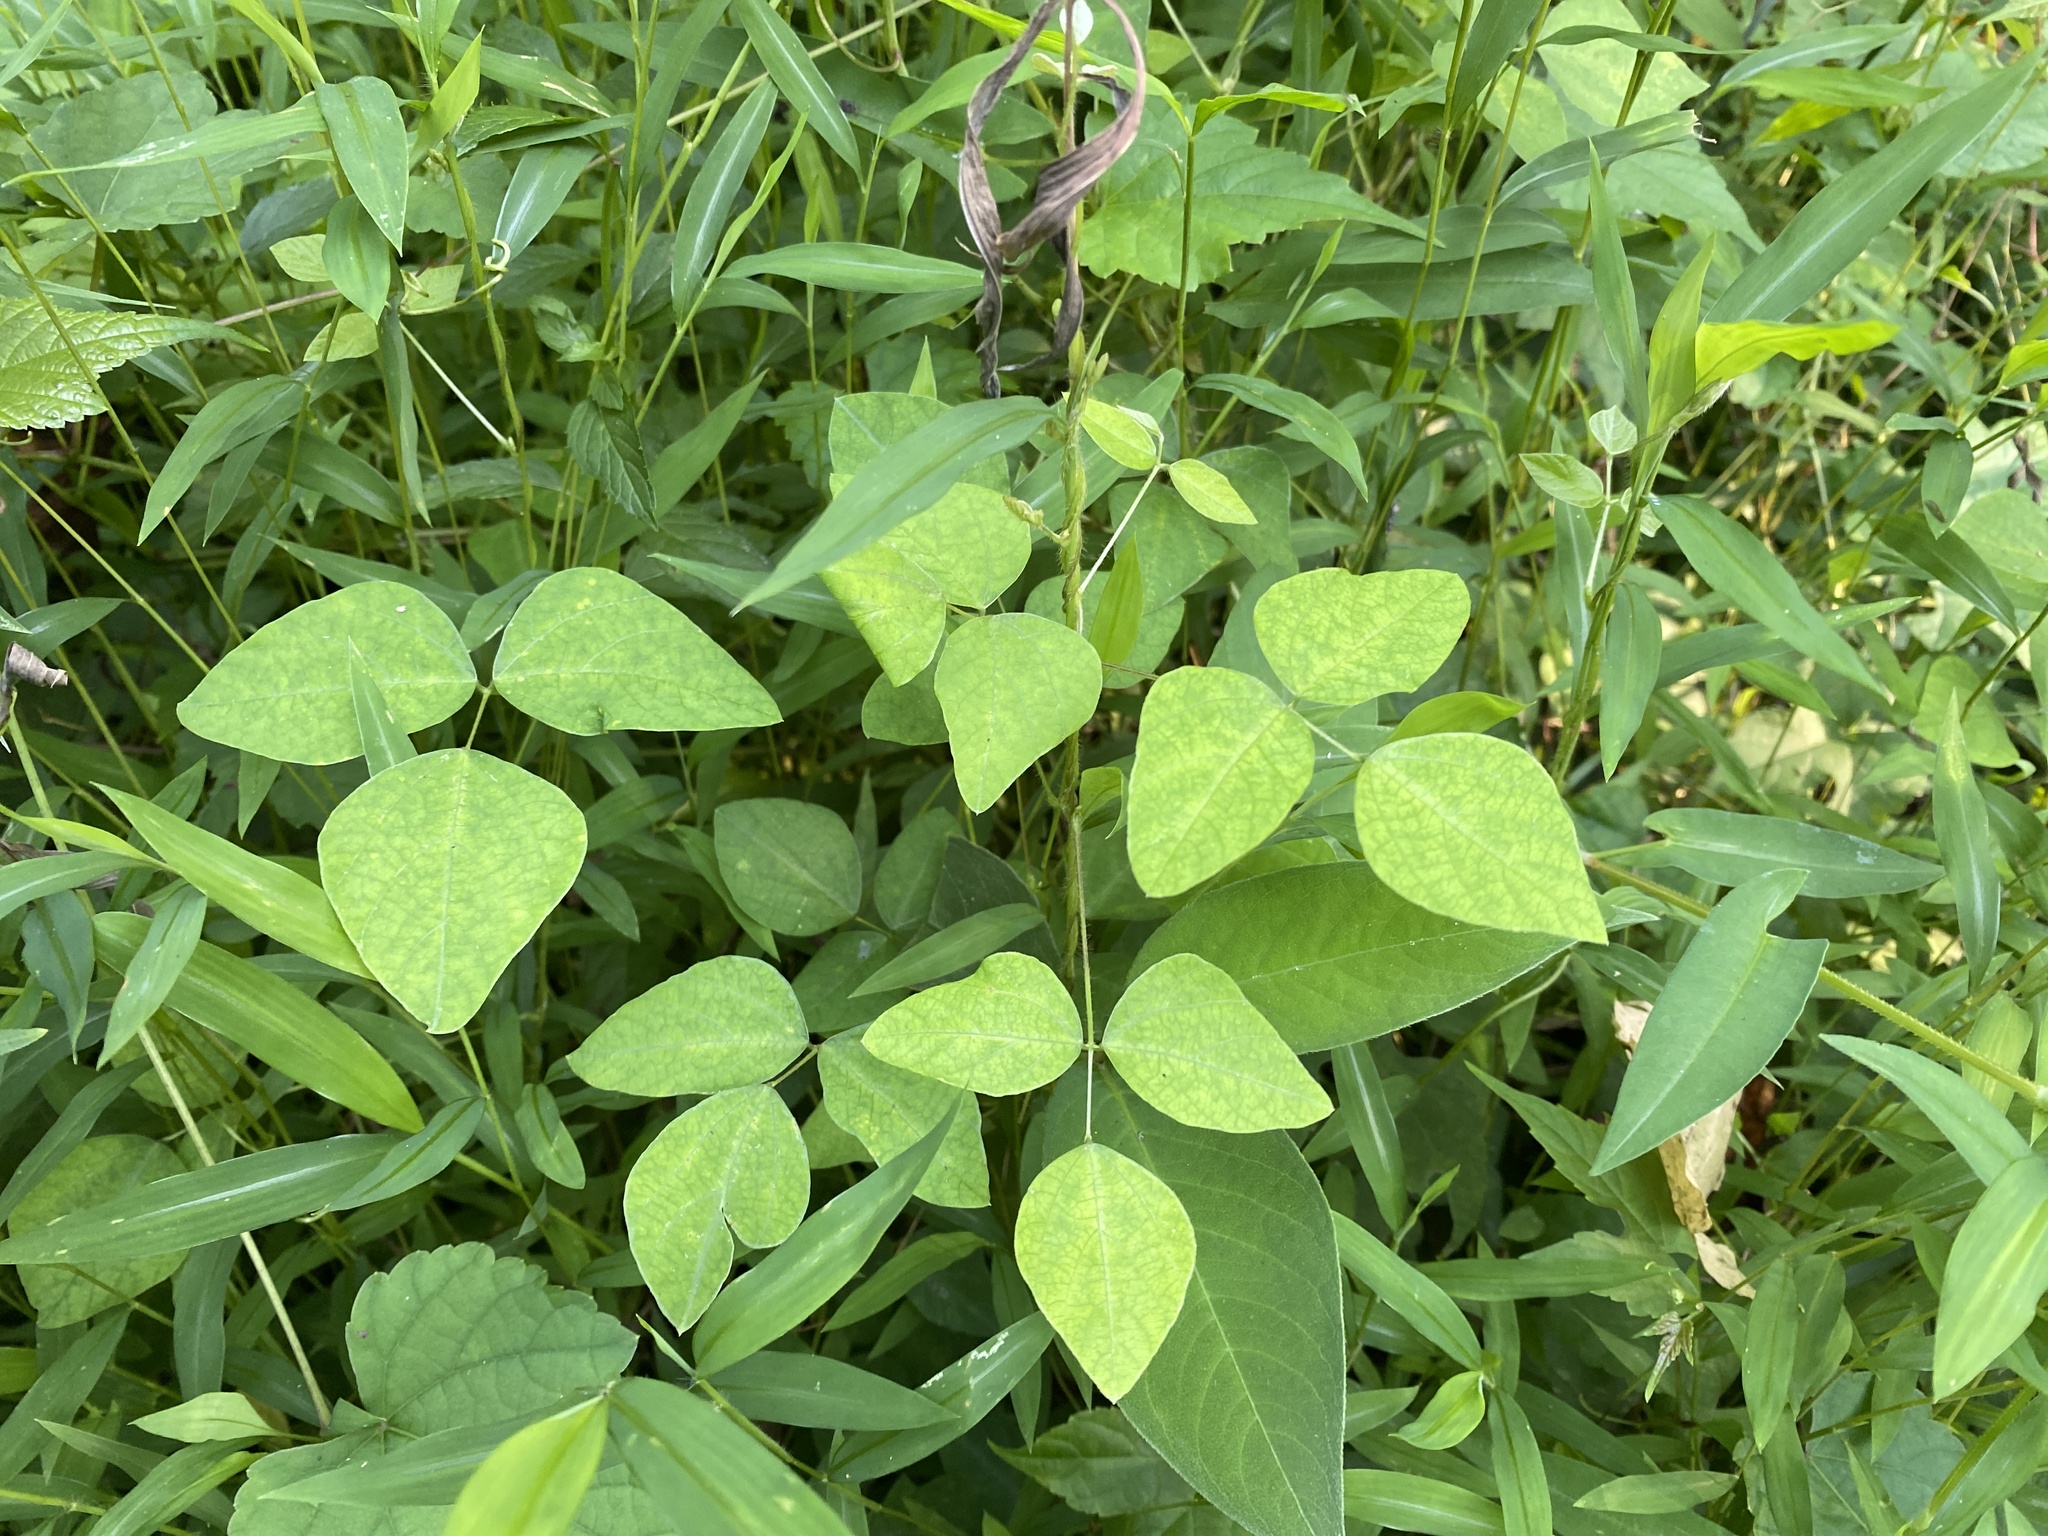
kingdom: Plantae
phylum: Tracheophyta
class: Magnoliopsida
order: Fabales
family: Fabaceae
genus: Amphicarpaea
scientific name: Amphicarpaea bracteata
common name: American hog peanut
